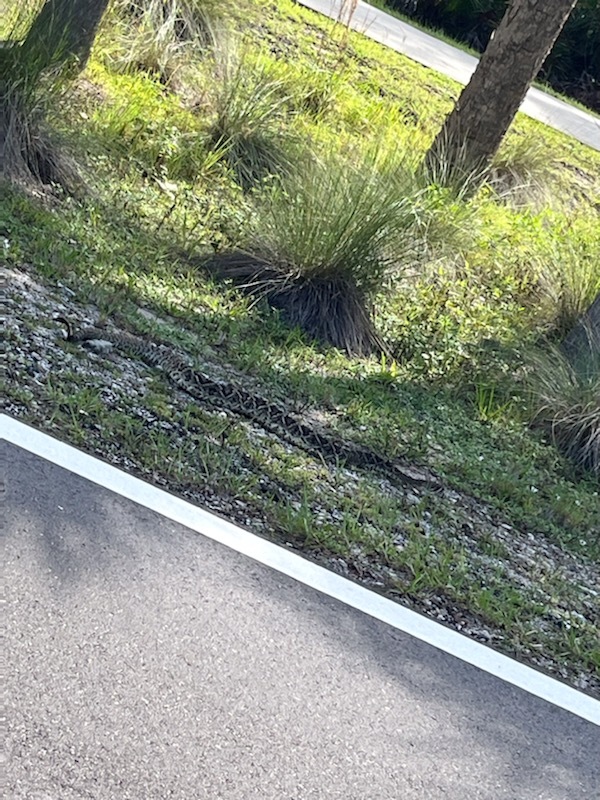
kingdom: Animalia
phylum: Chordata
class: Squamata
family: Viperidae
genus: Crotalus
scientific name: Crotalus adamanteus
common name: Eastern diamondback rattlesnake
